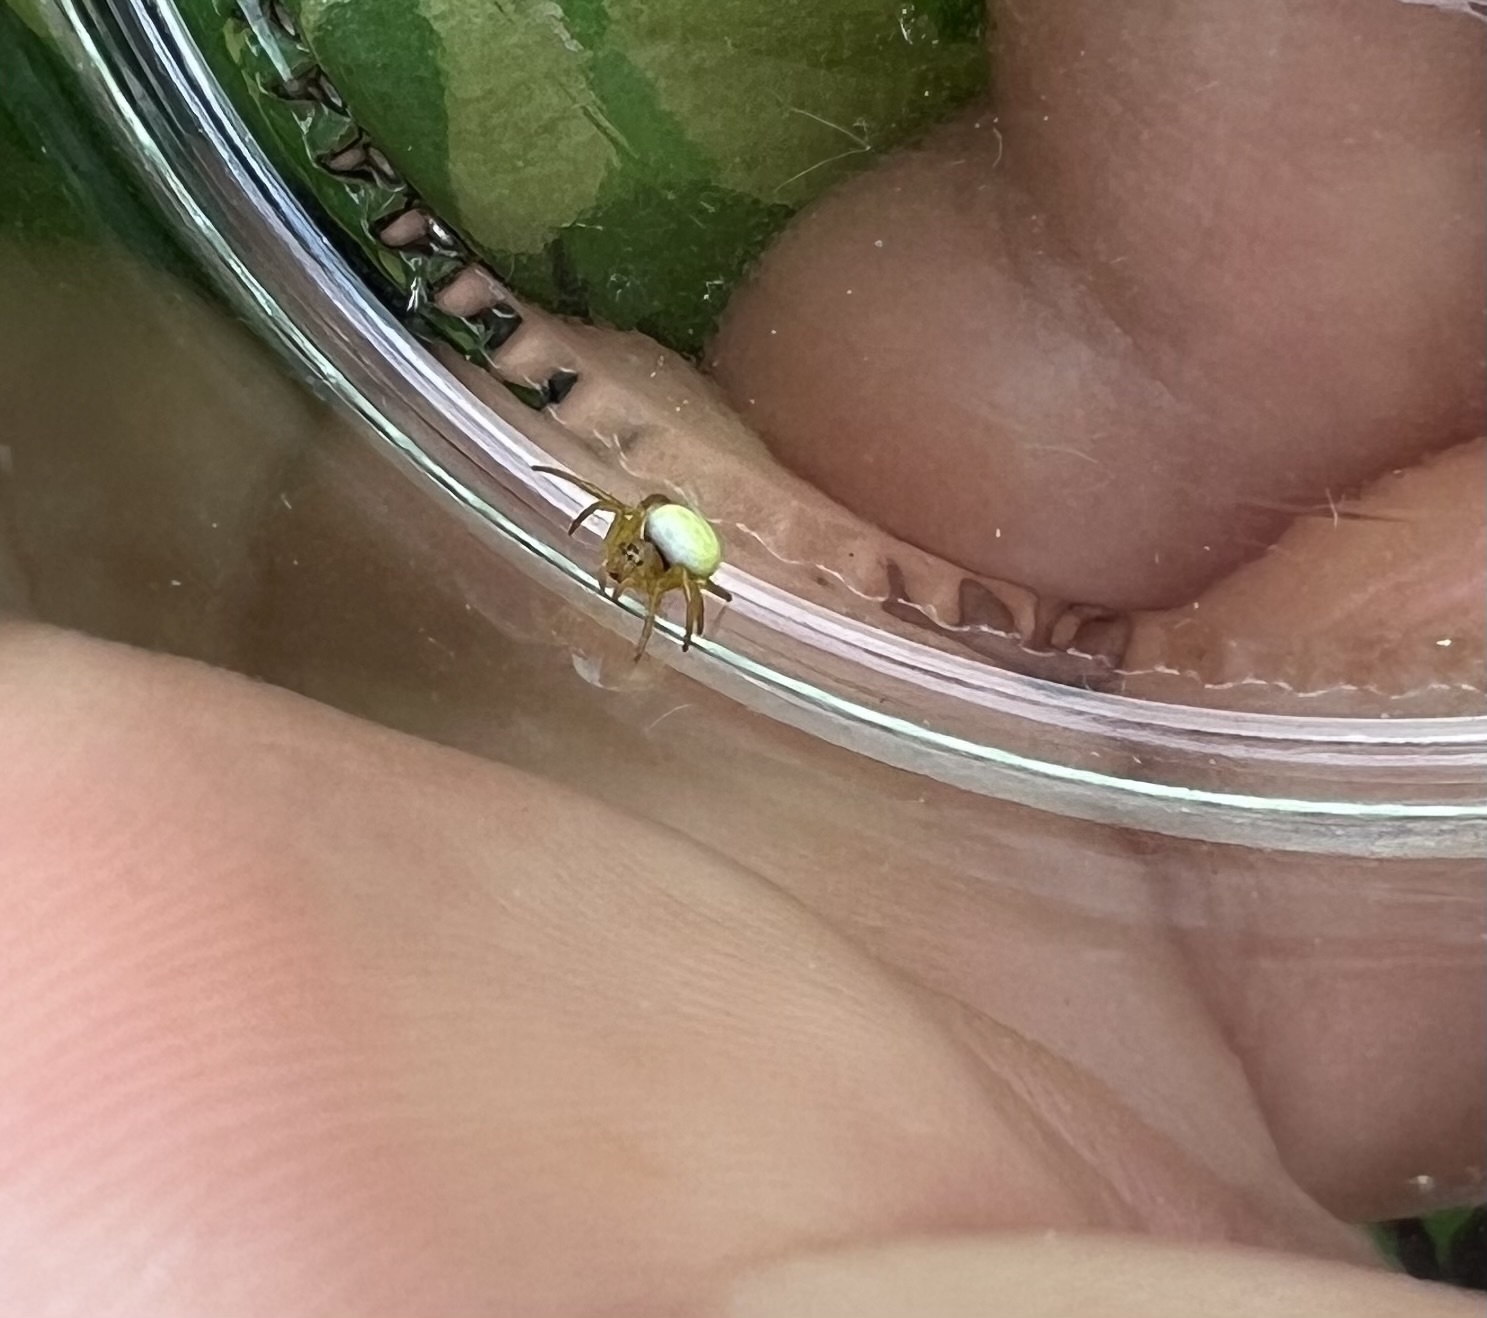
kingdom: Animalia
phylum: Arthropoda
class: Arachnida
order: Araneae
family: Araneidae
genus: Araniella
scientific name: Araniella
